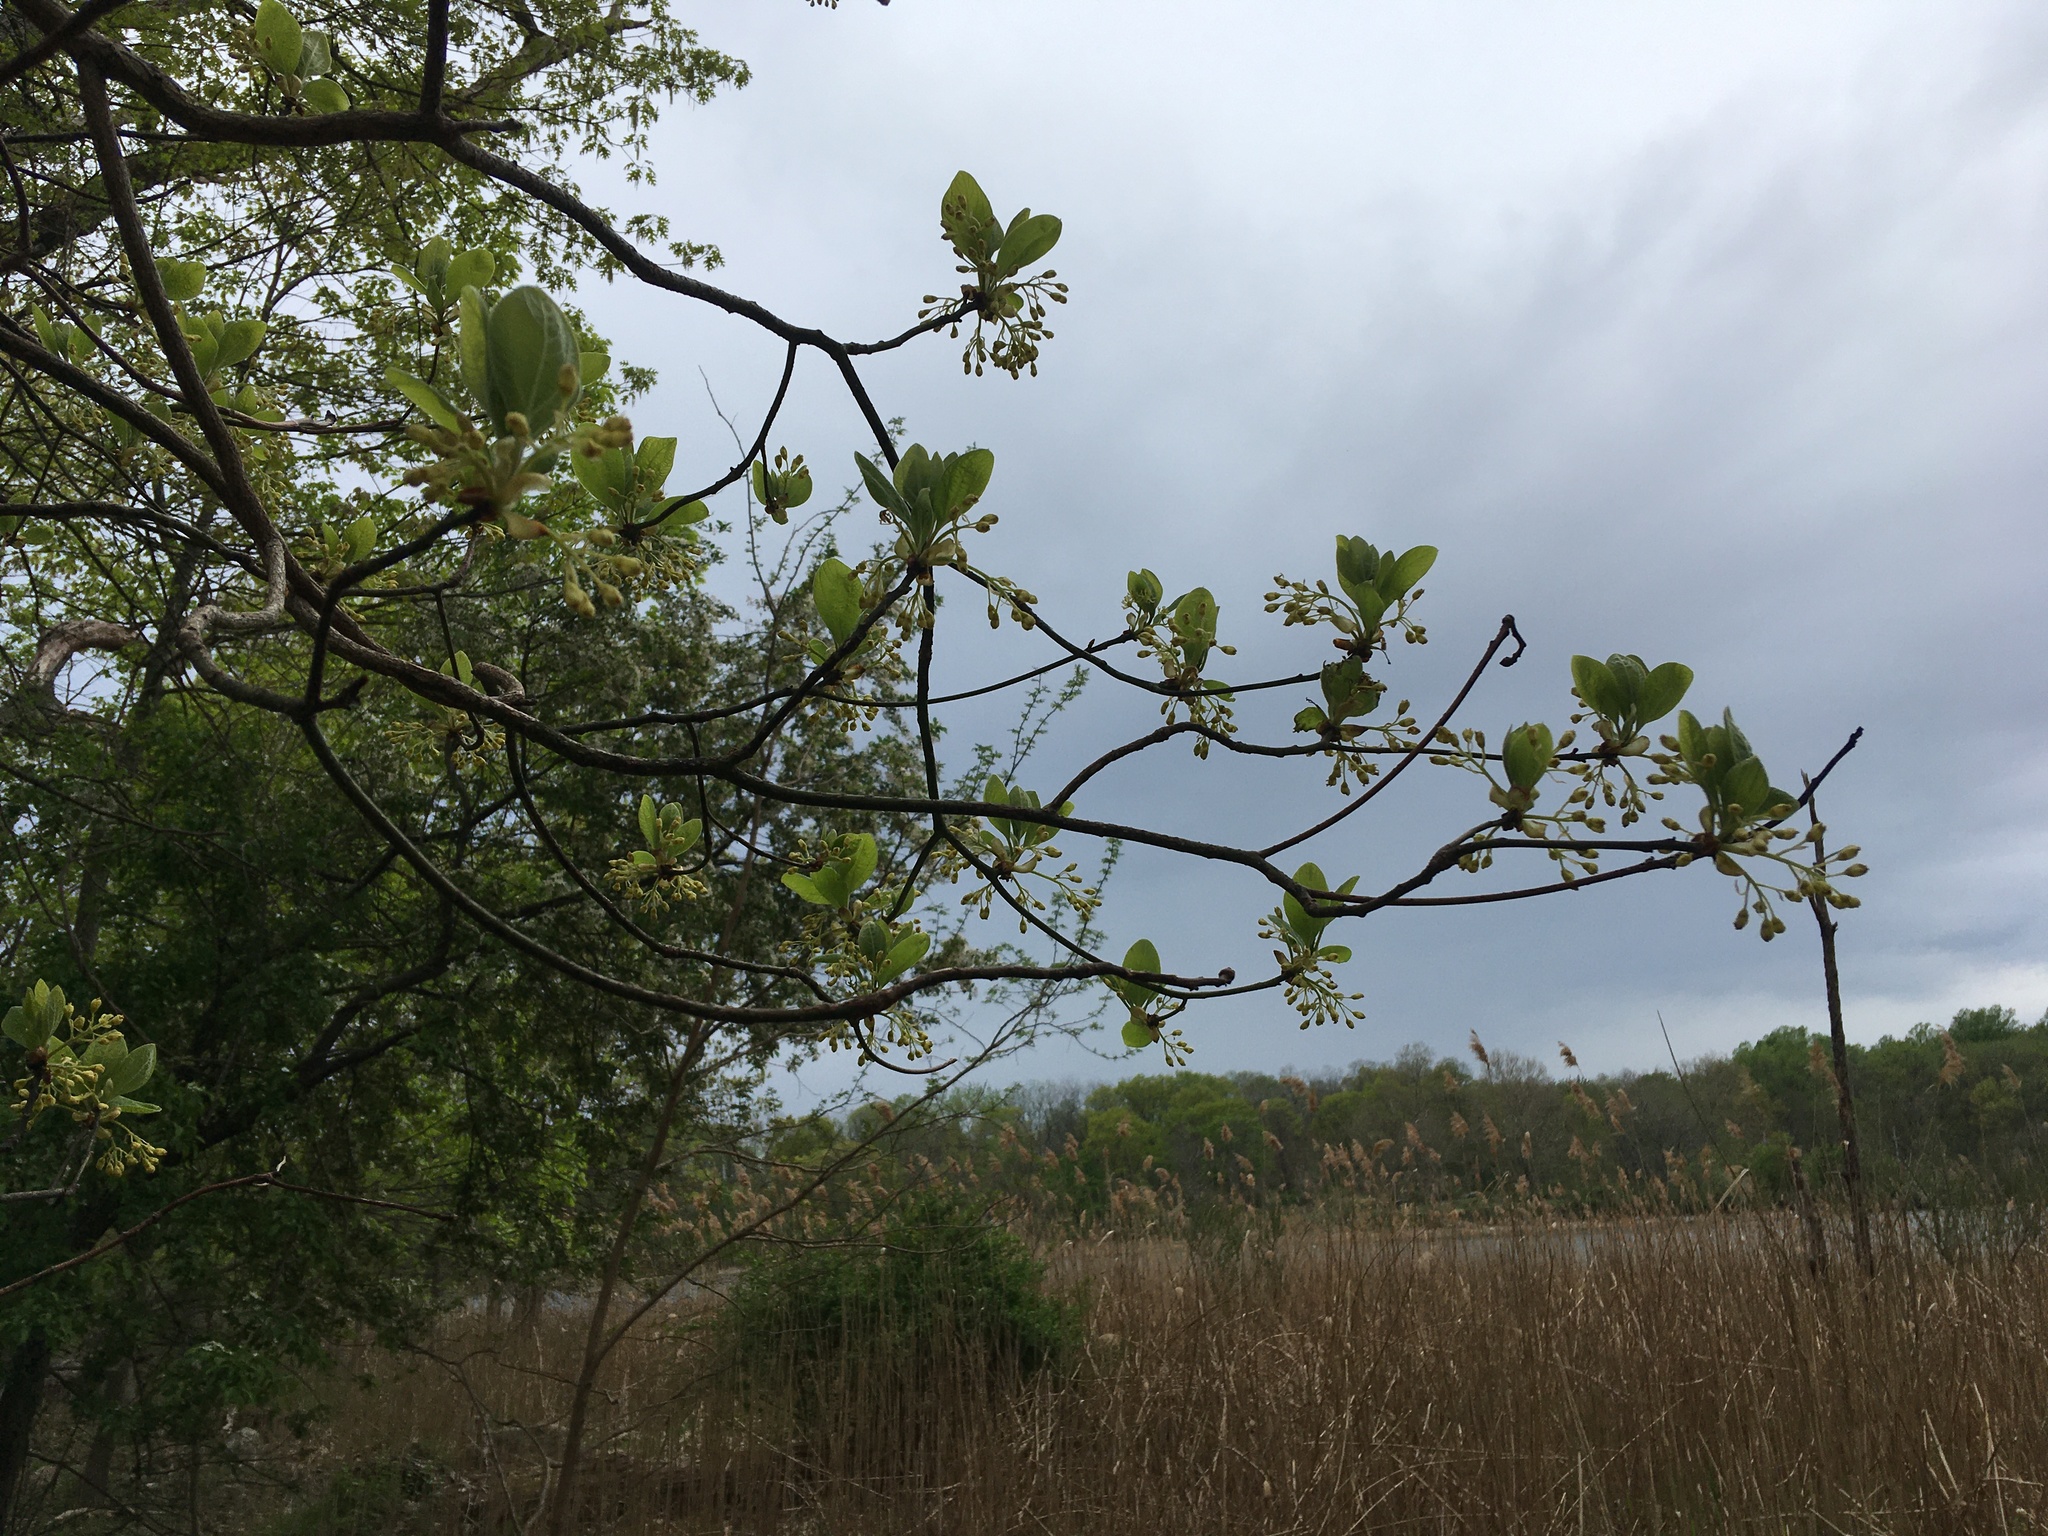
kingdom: Plantae
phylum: Tracheophyta
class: Magnoliopsida
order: Laurales
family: Lauraceae
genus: Sassafras
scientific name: Sassafras albidum
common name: Sassafras
